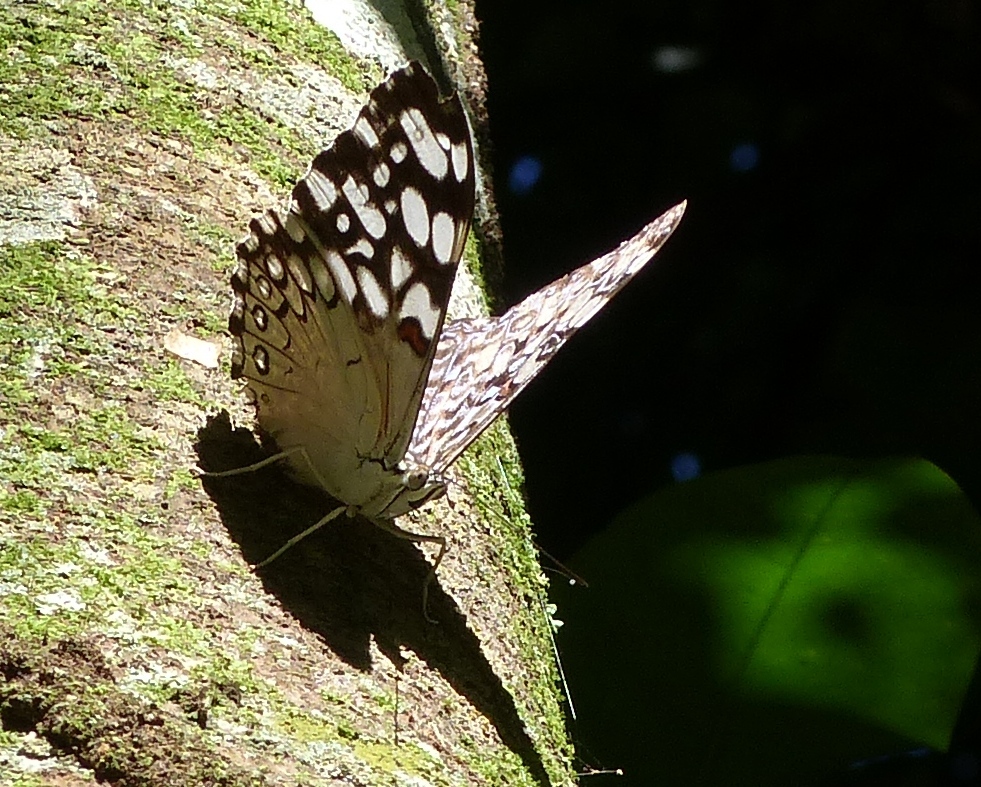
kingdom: Animalia
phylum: Arthropoda
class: Insecta
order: Lepidoptera
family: Nymphalidae
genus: Hamadryas
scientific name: Hamadryas feronia
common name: Variable cracker
